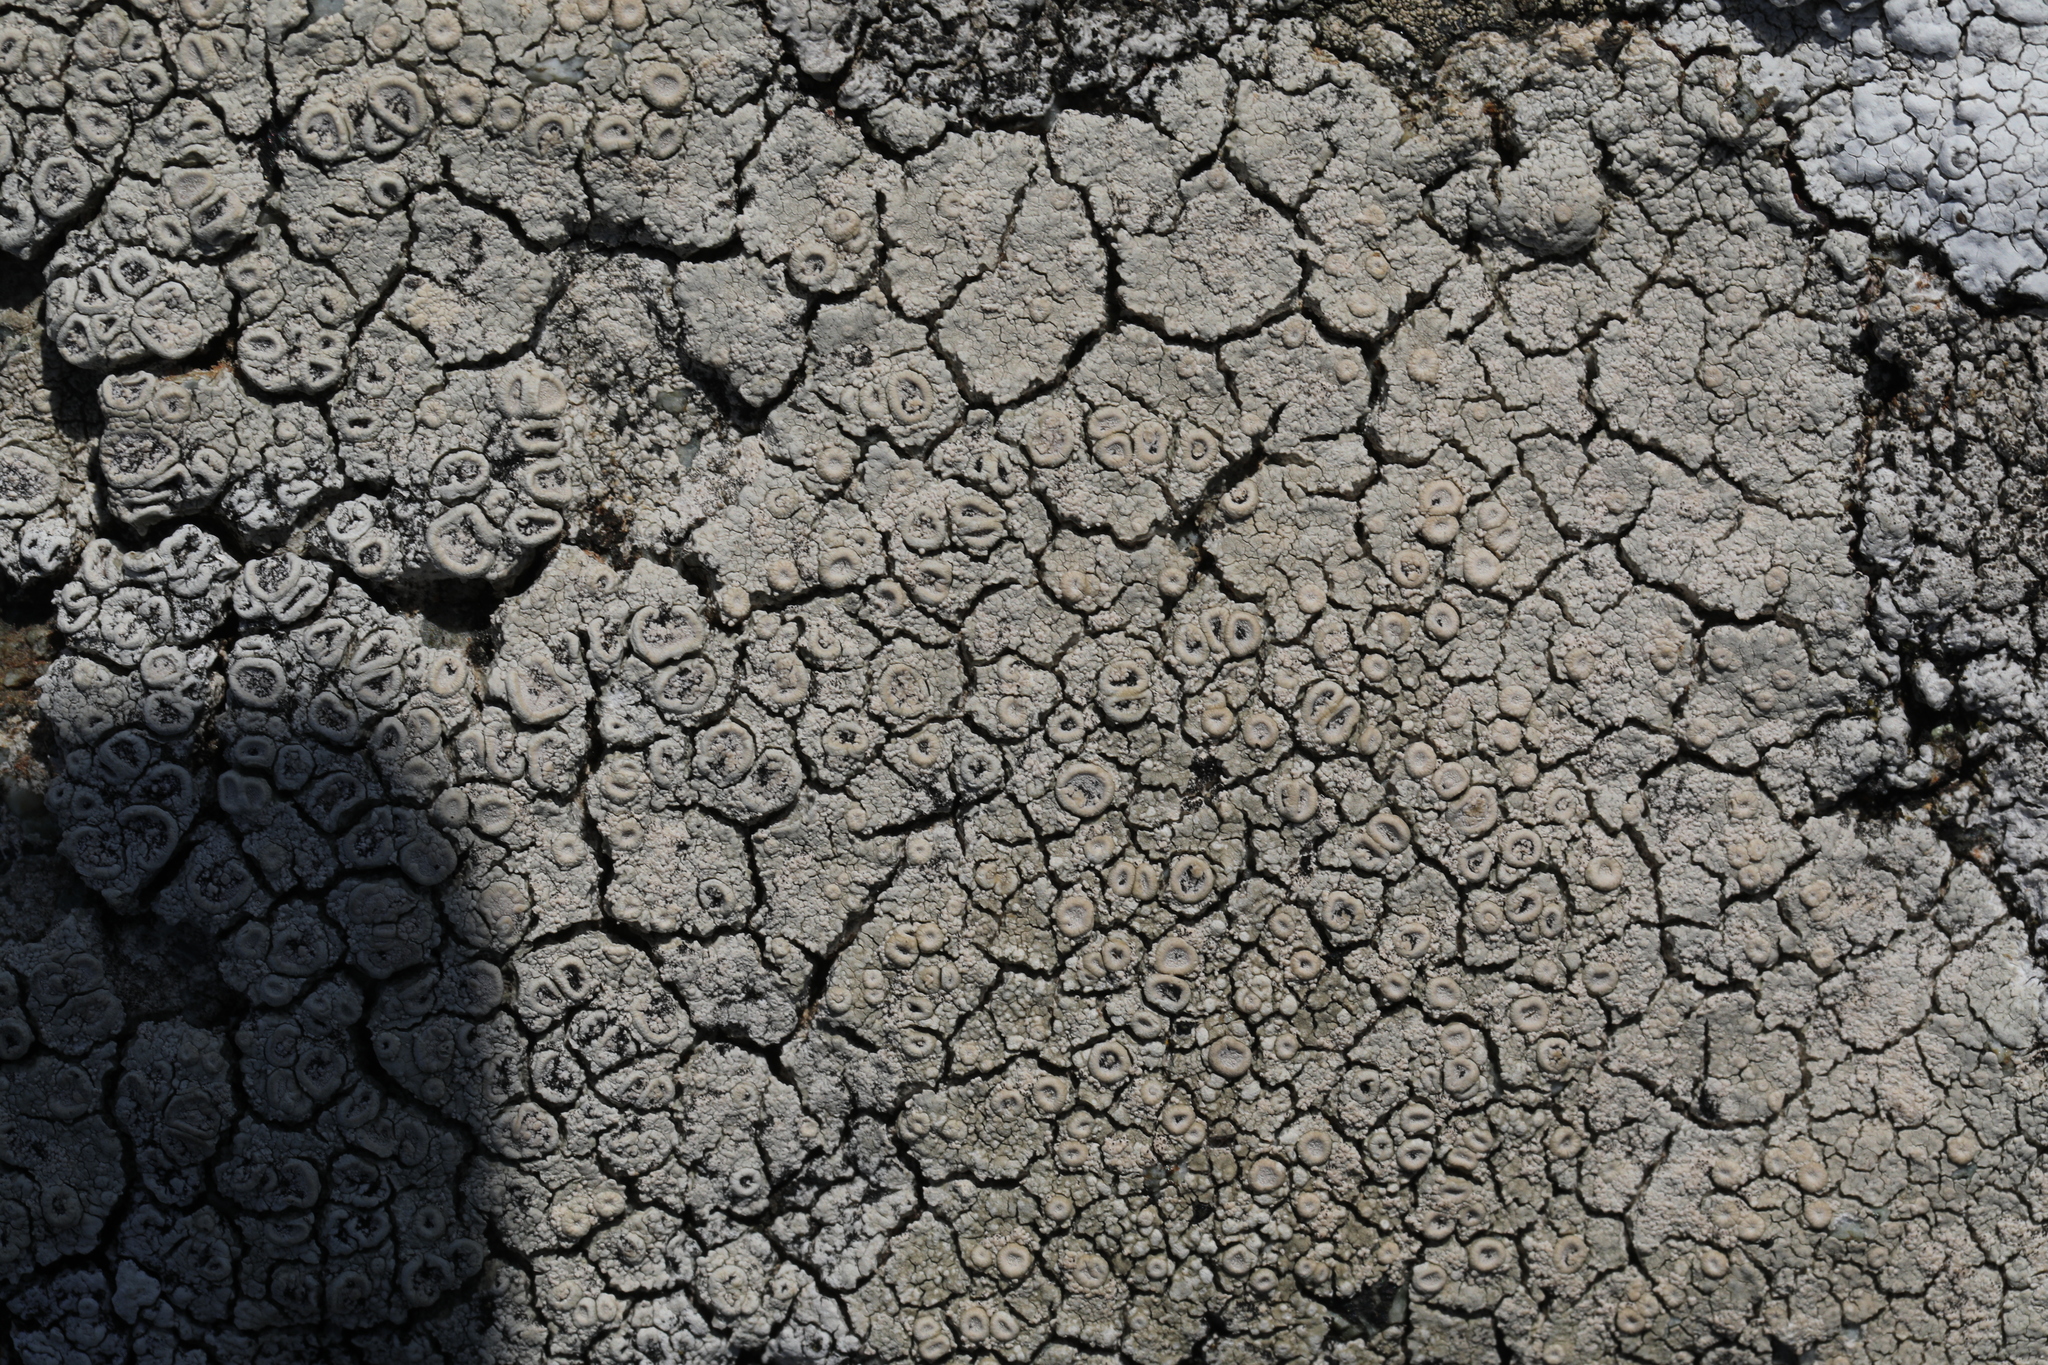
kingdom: Fungi
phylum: Ascomycota
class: Lecanoromycetes
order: Pertusariales
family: Ochrolechiaceae
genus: Ochrolechia
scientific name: Ochrolechia parella
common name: Crab's eye lichen
